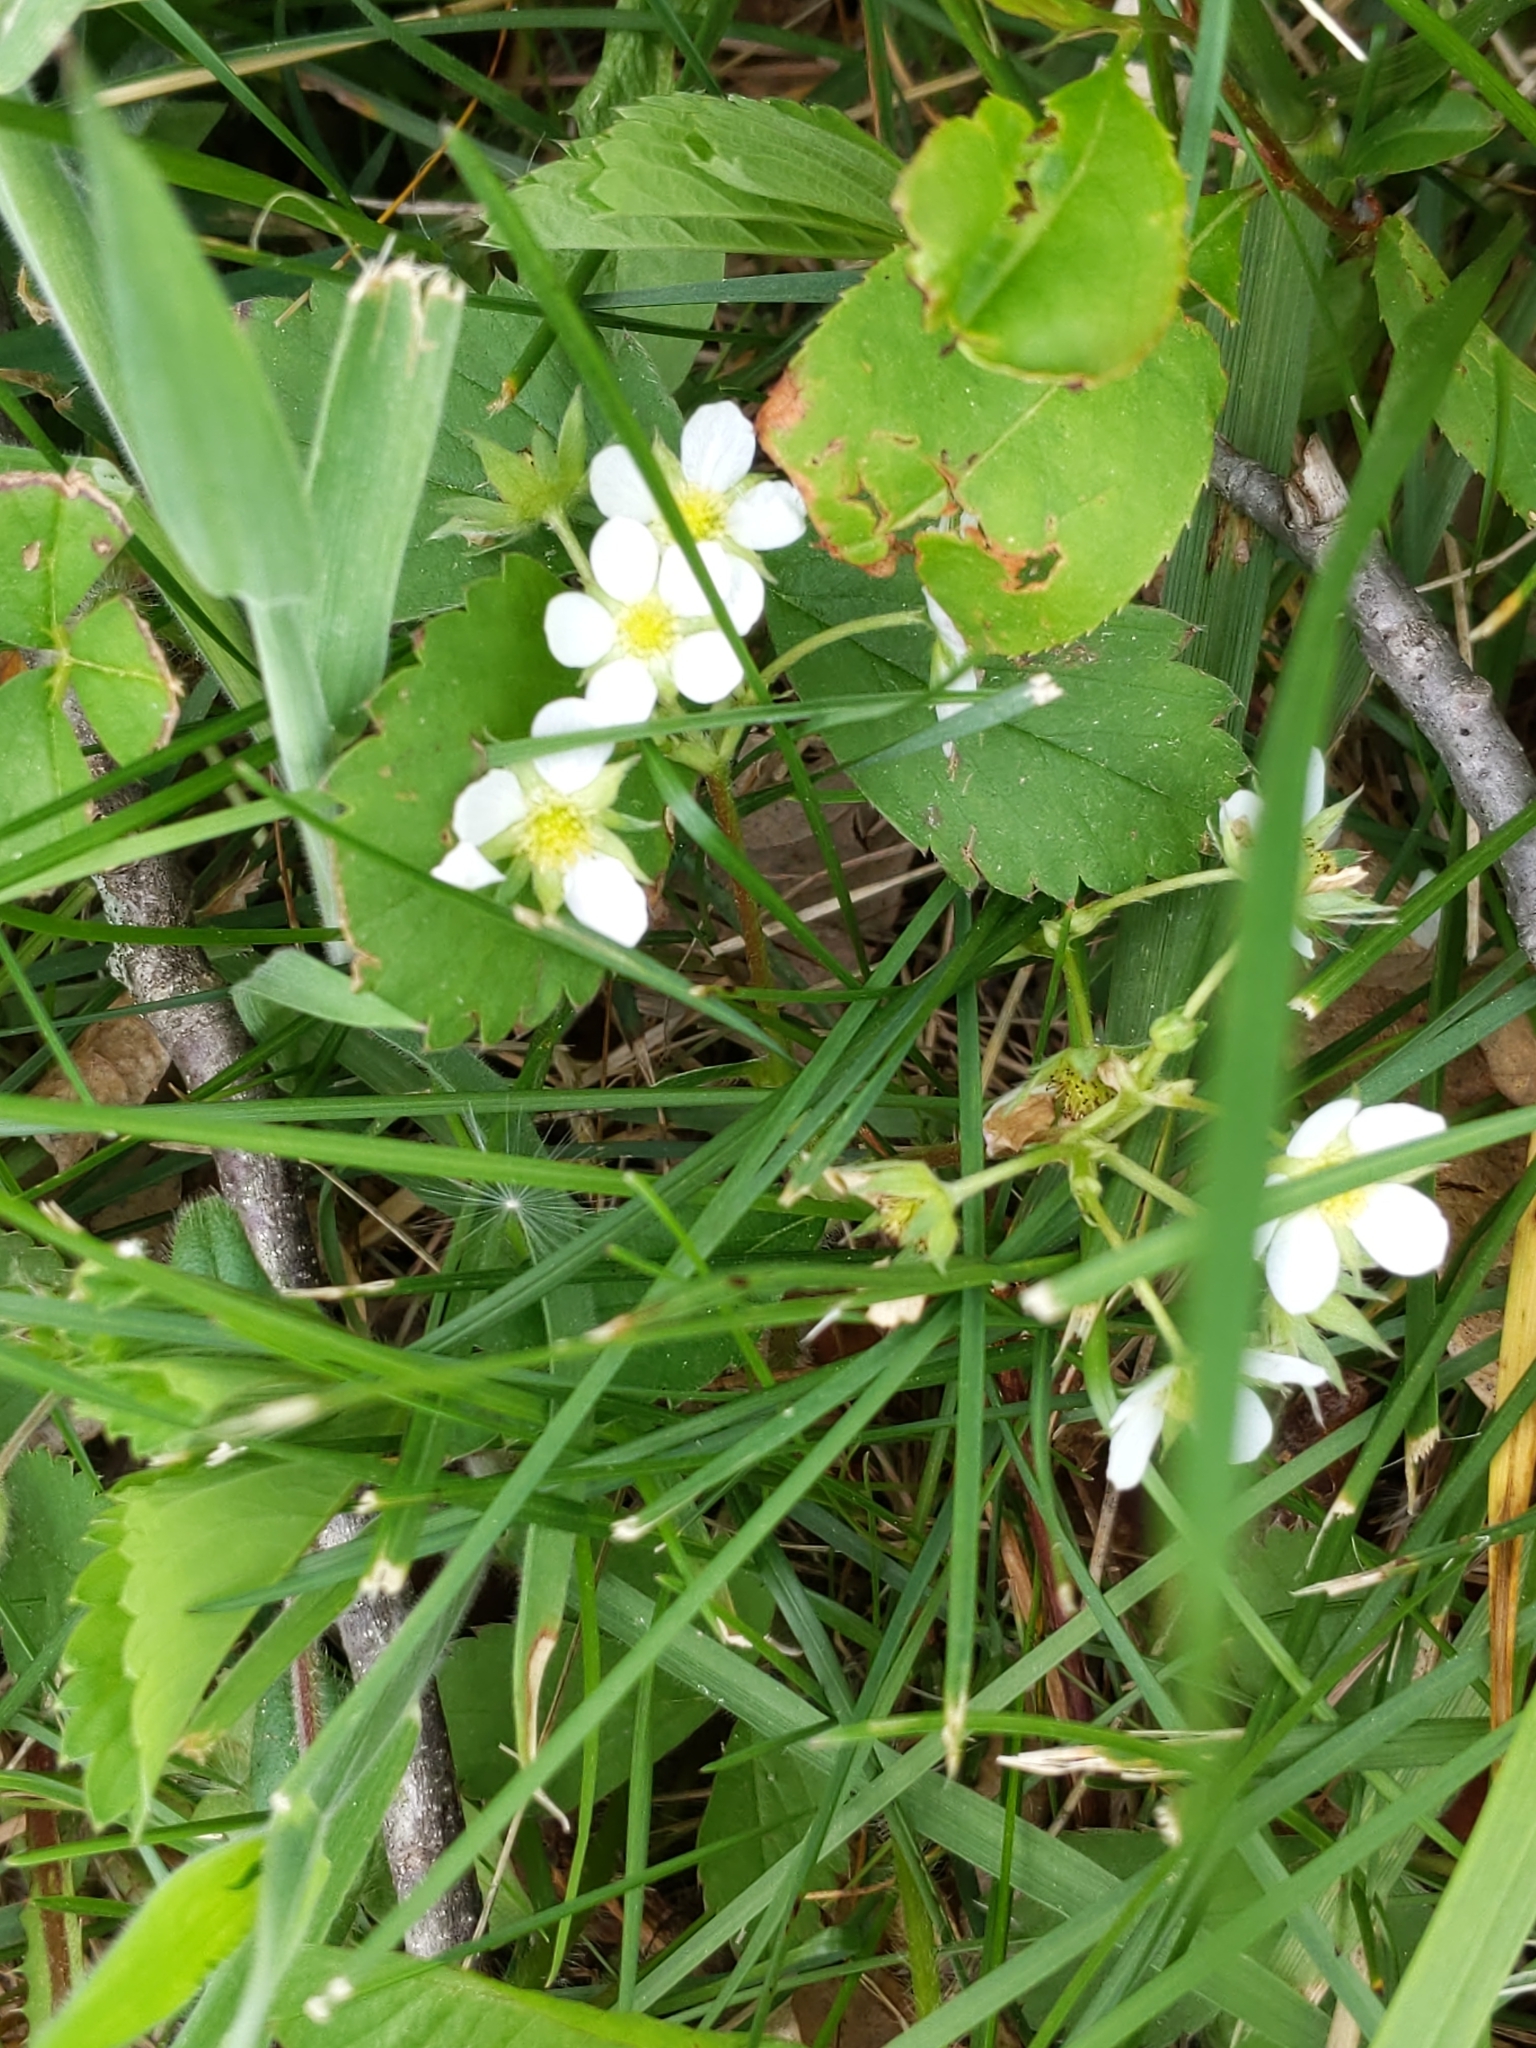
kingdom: Plantae
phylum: Tracheophyta
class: Magnoliopsida
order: Rosales
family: Rosaceae
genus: Fragaria
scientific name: Fragaria virginiana
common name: Thickleaved wild strawberry
